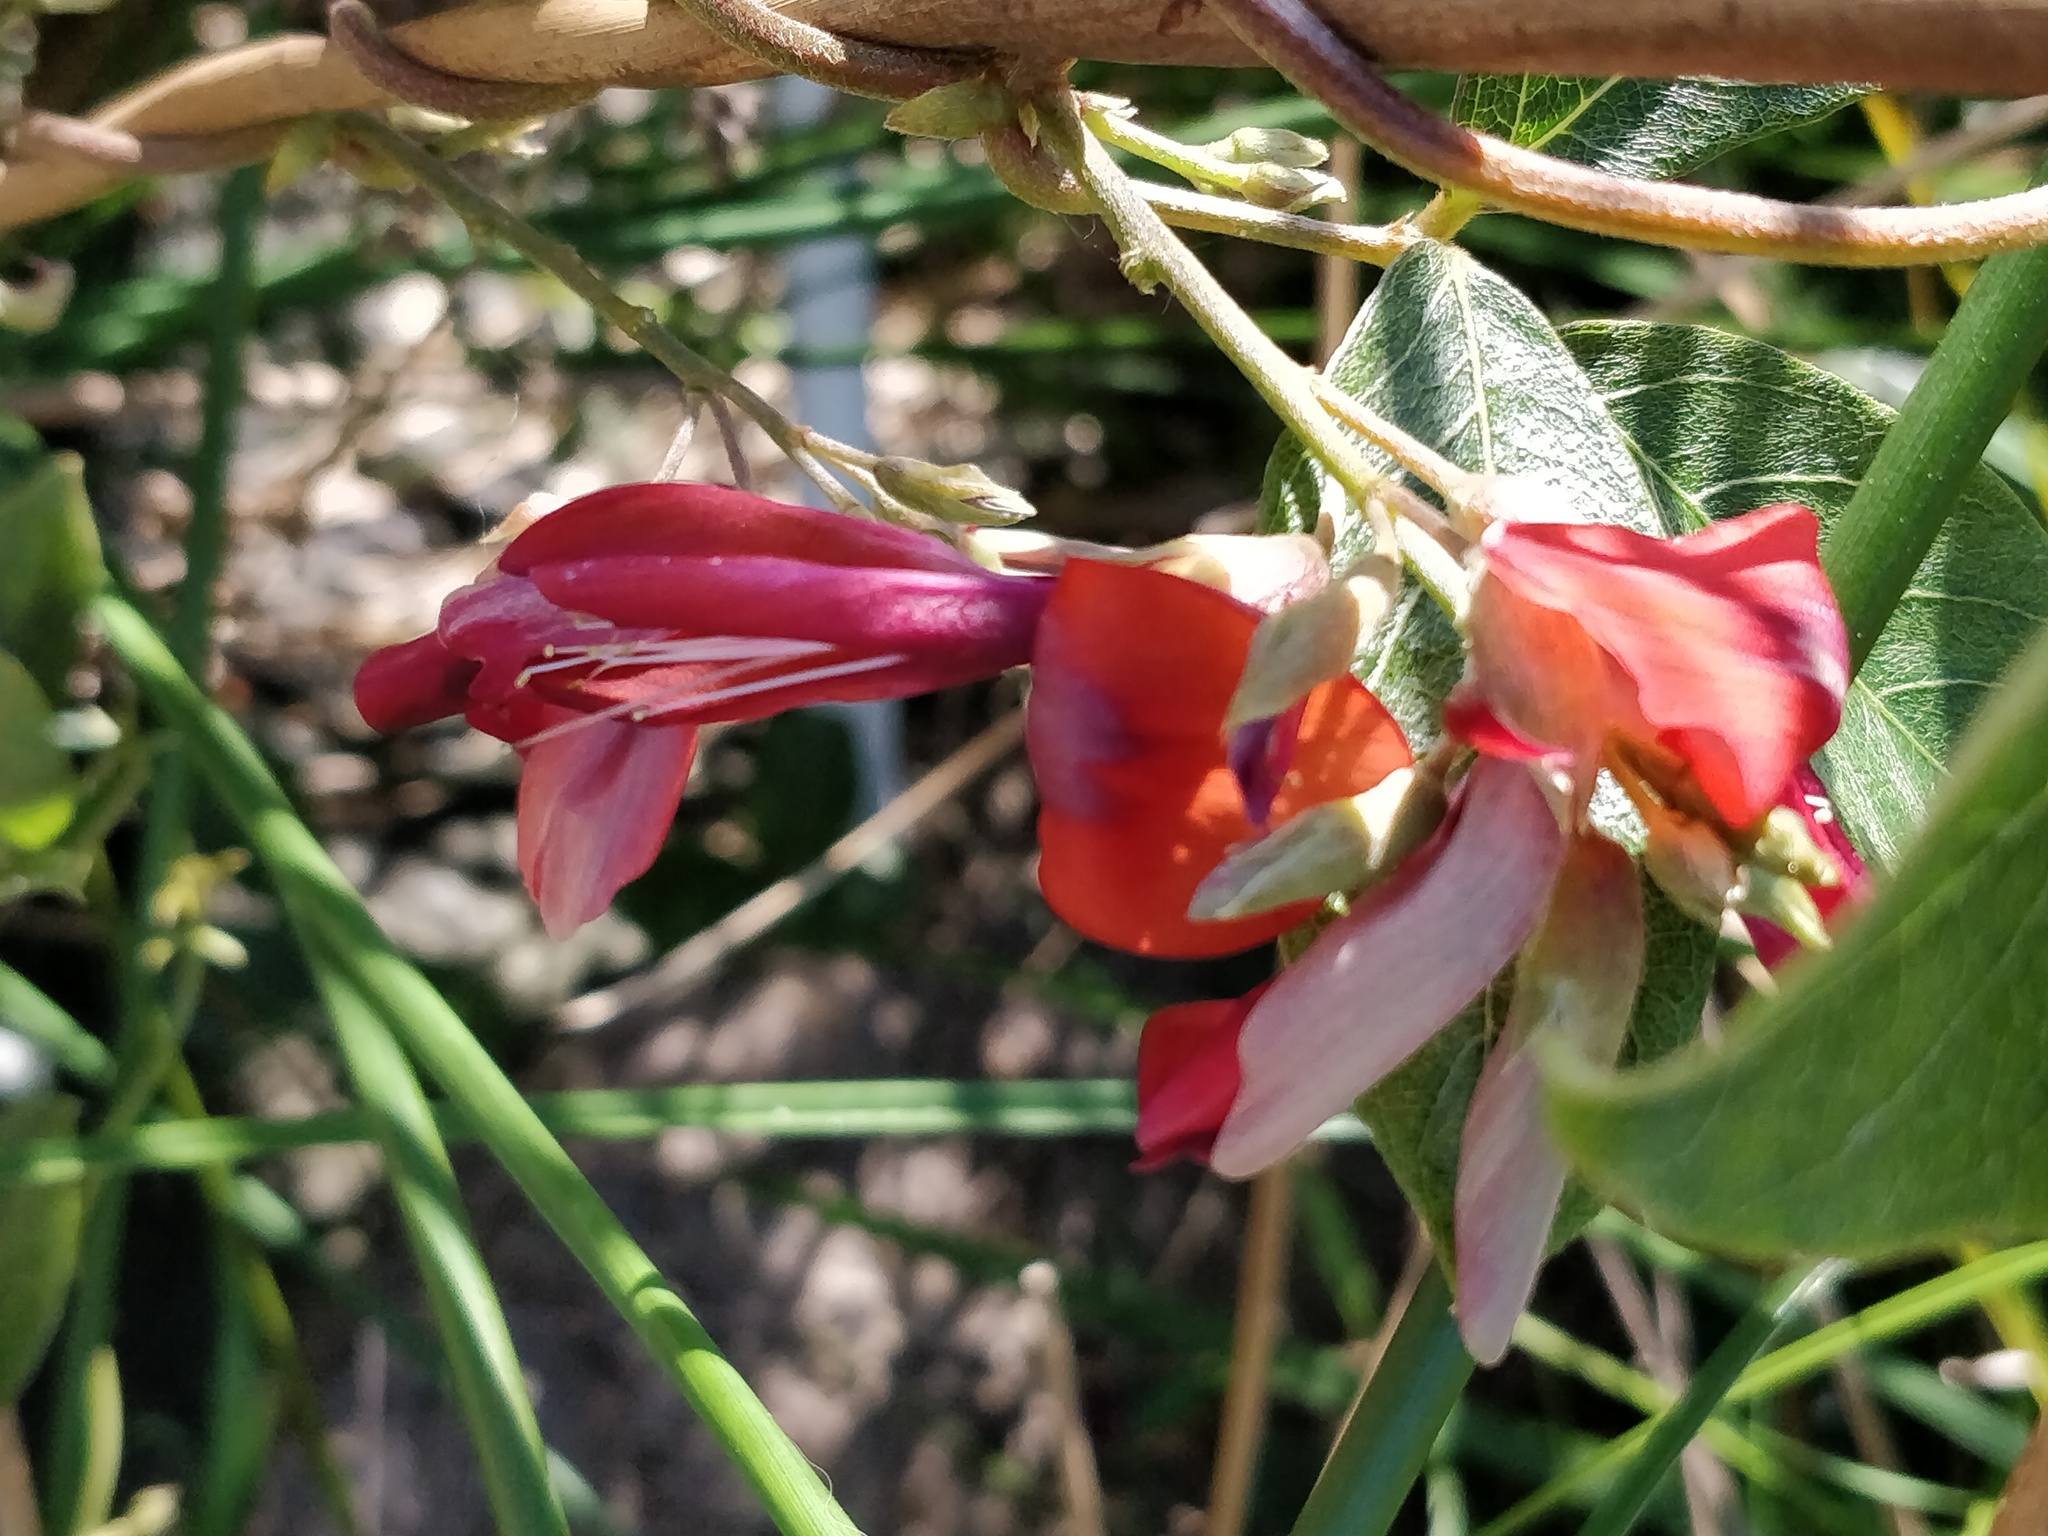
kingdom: Plantae
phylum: Tracheophyta
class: Magnoliopsida
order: Fabales
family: Fabaceae
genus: Kennedia
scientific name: Kennedia rubicunda
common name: Red kennedy-pea
